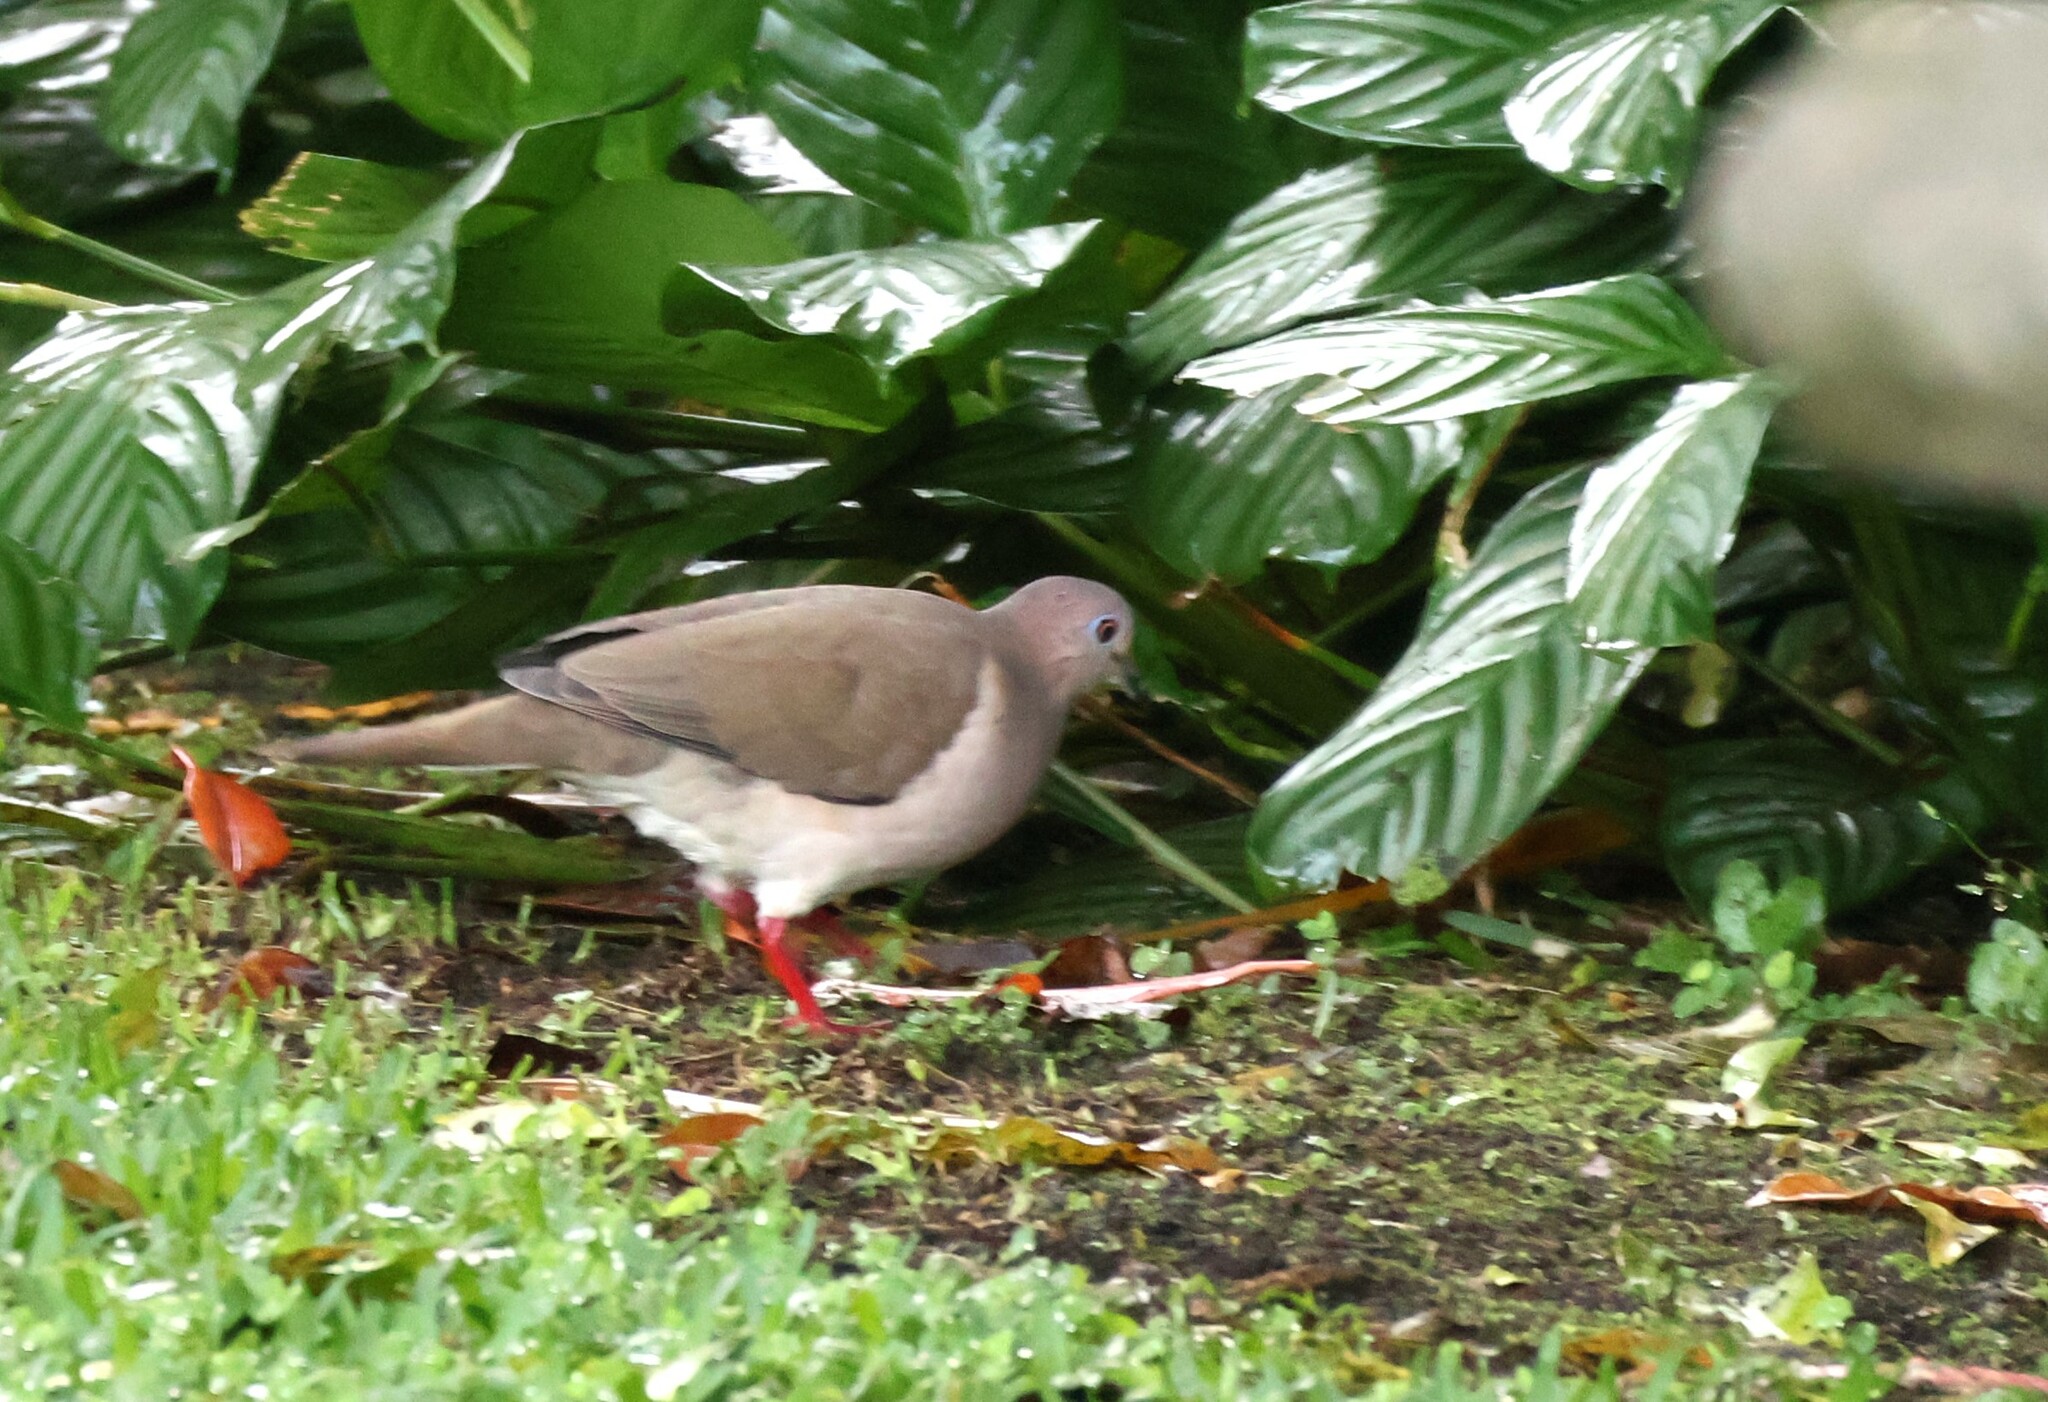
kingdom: Animalia
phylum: Chordata
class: Aves
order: Columbiformes
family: Columbidae
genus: Leptotila
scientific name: Leptotila verreauxi
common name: White-tipped dove
